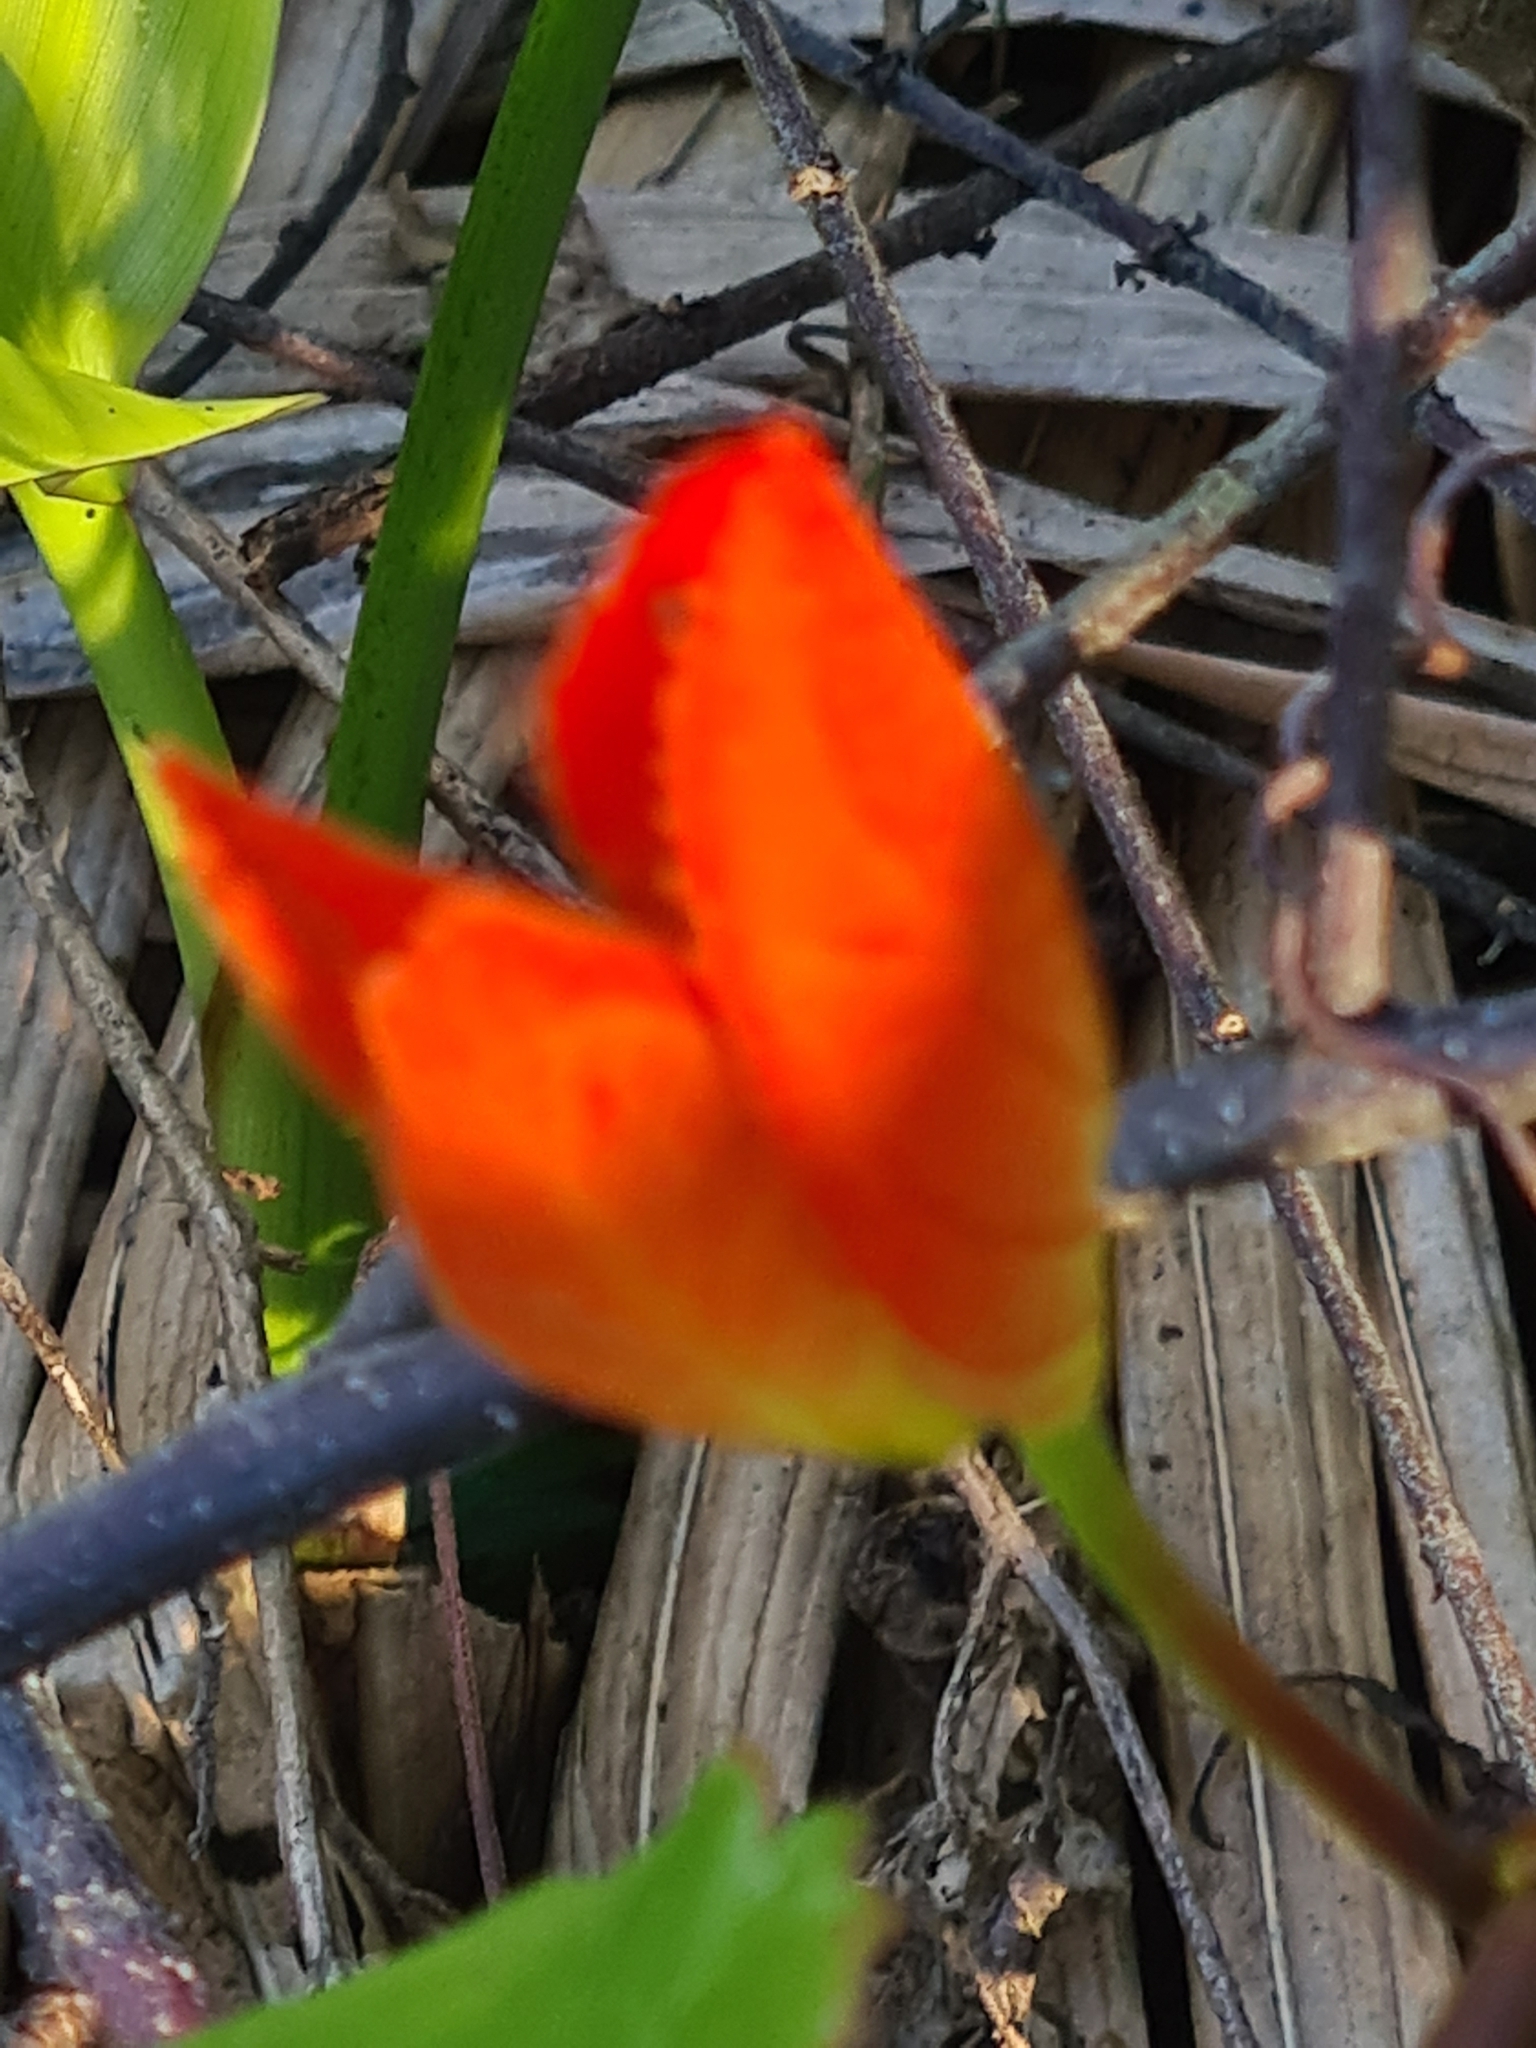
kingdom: Plantae
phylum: Tracheophyta
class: Magnoliopsida
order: Malpighiales
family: Passifloraceae
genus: Passiflora
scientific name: Passiflora coccinea
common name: Scarlet passionflower
